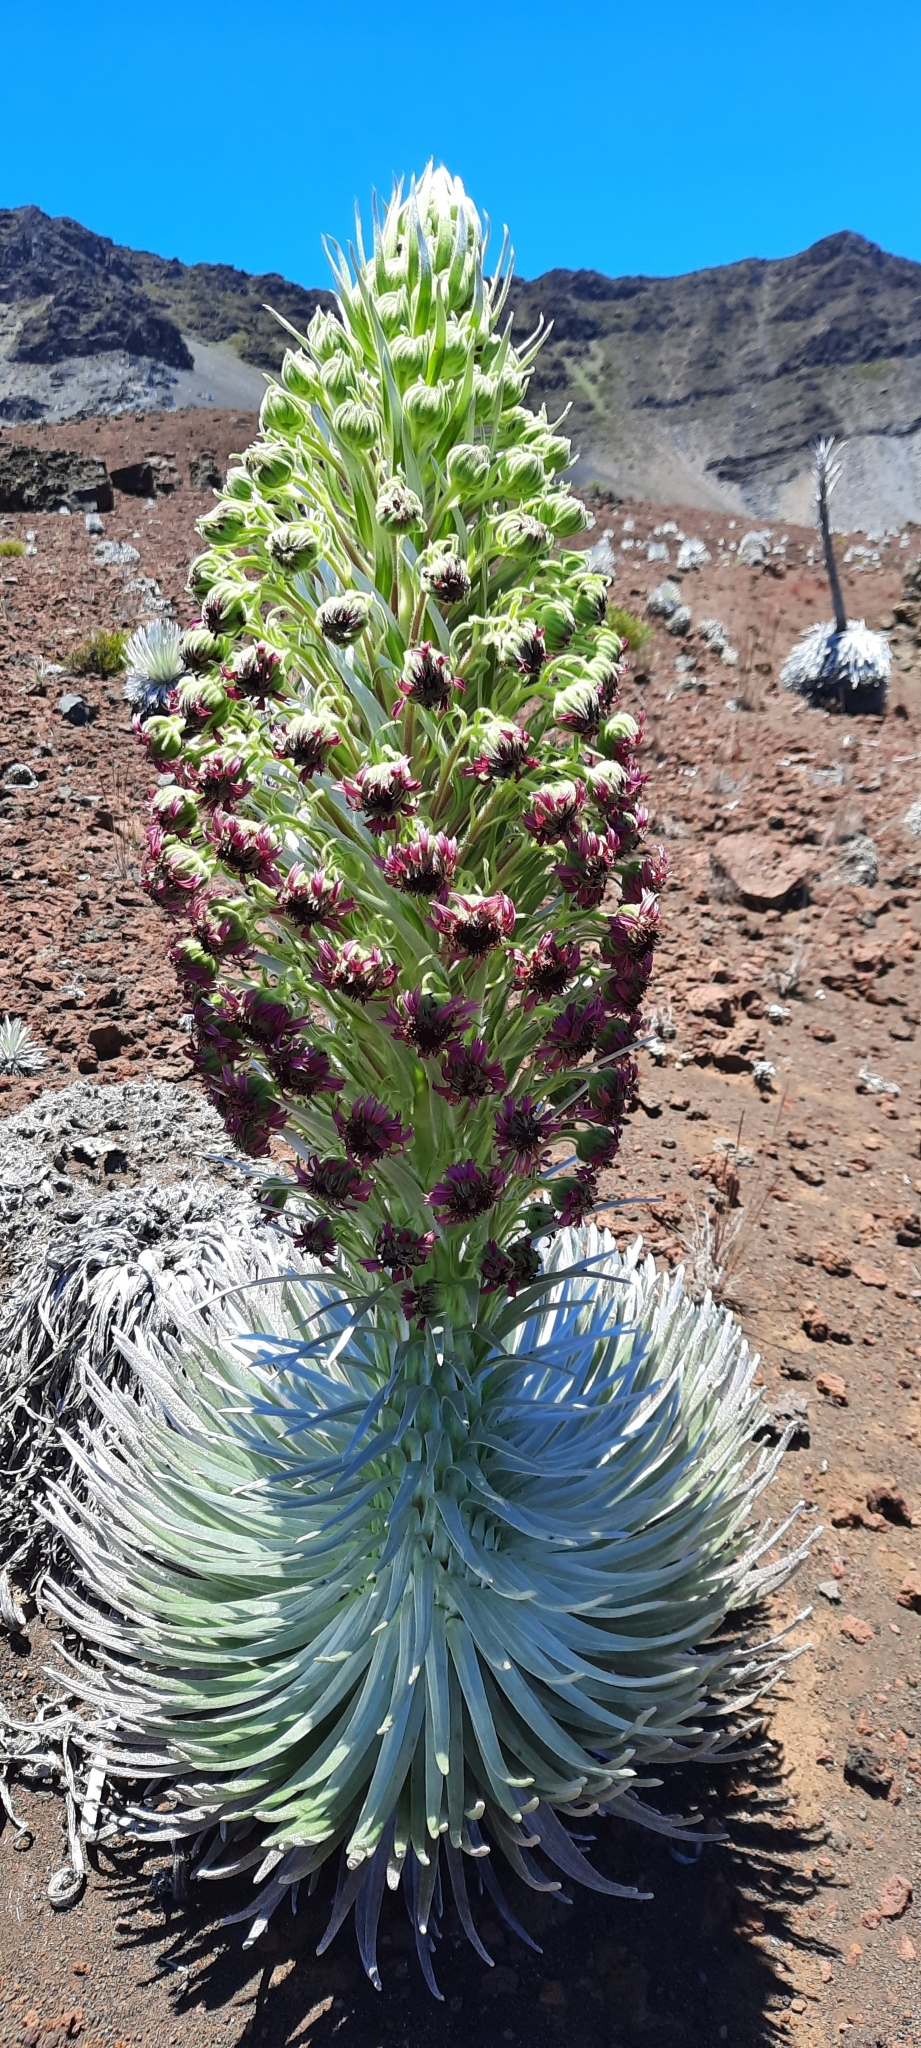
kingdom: Plantae
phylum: Tracheophyta
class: Magnoliopsida
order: Asterales
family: Asteraceae
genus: Argyroxiphium
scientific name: Argyroxiphium sandwicense
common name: Silversword
